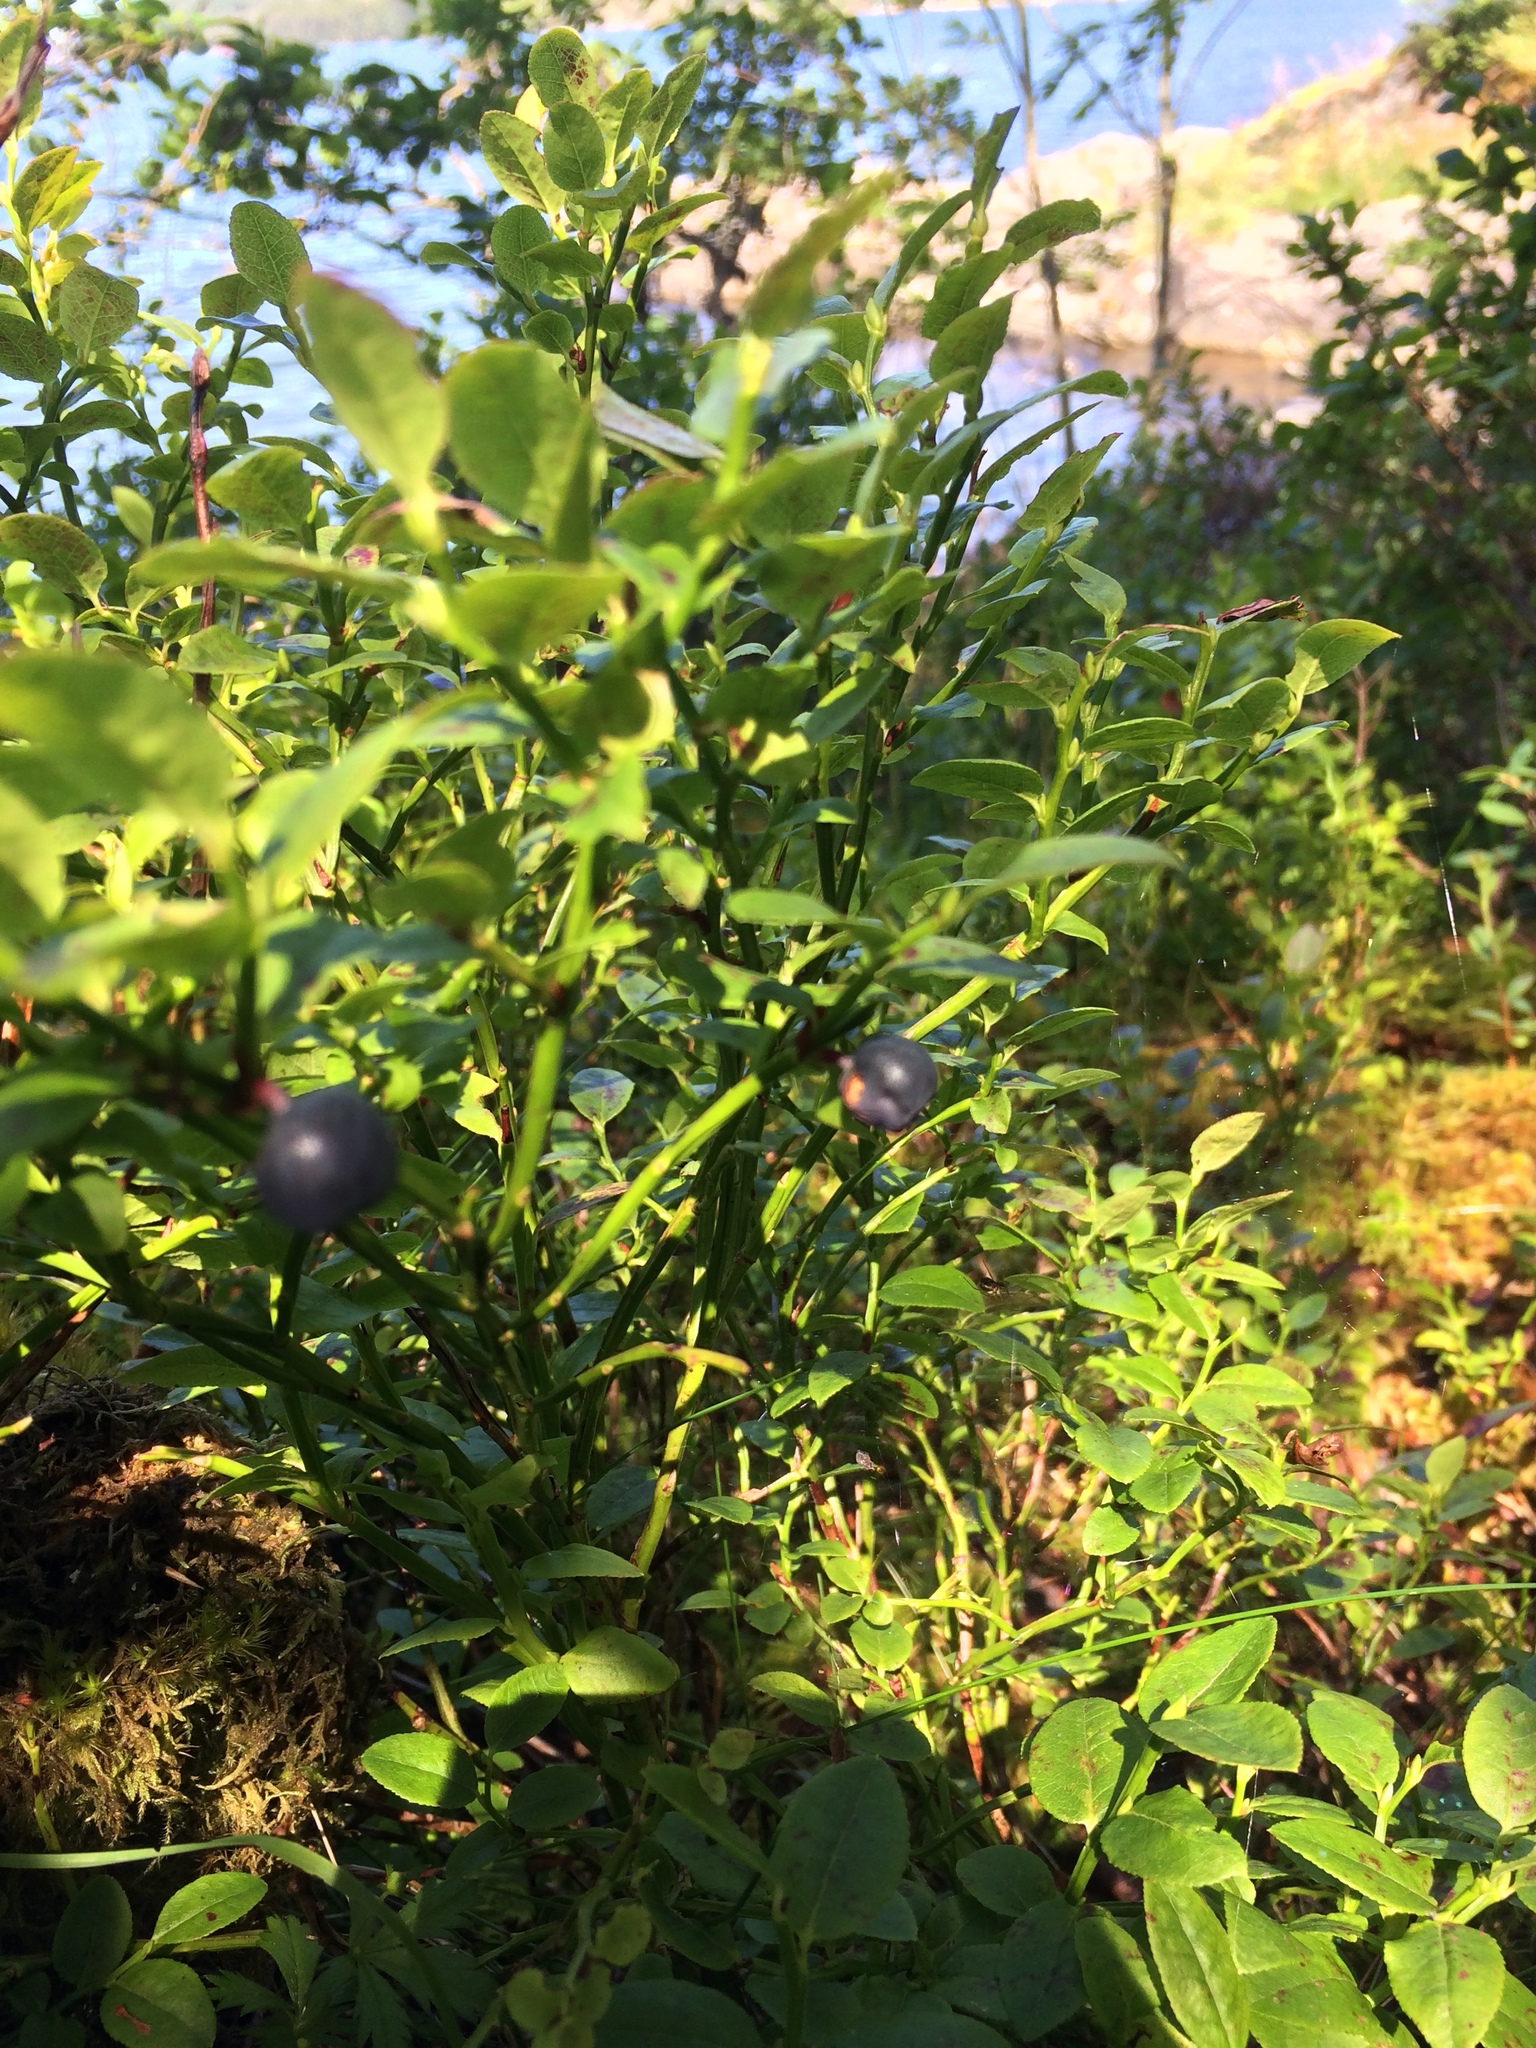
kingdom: Plantae
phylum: Tracheophyta
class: Magnoliopsida
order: Ericales
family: Ericaceae
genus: Vaccinium
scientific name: Vaccinium myrtillus
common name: Bilberry
